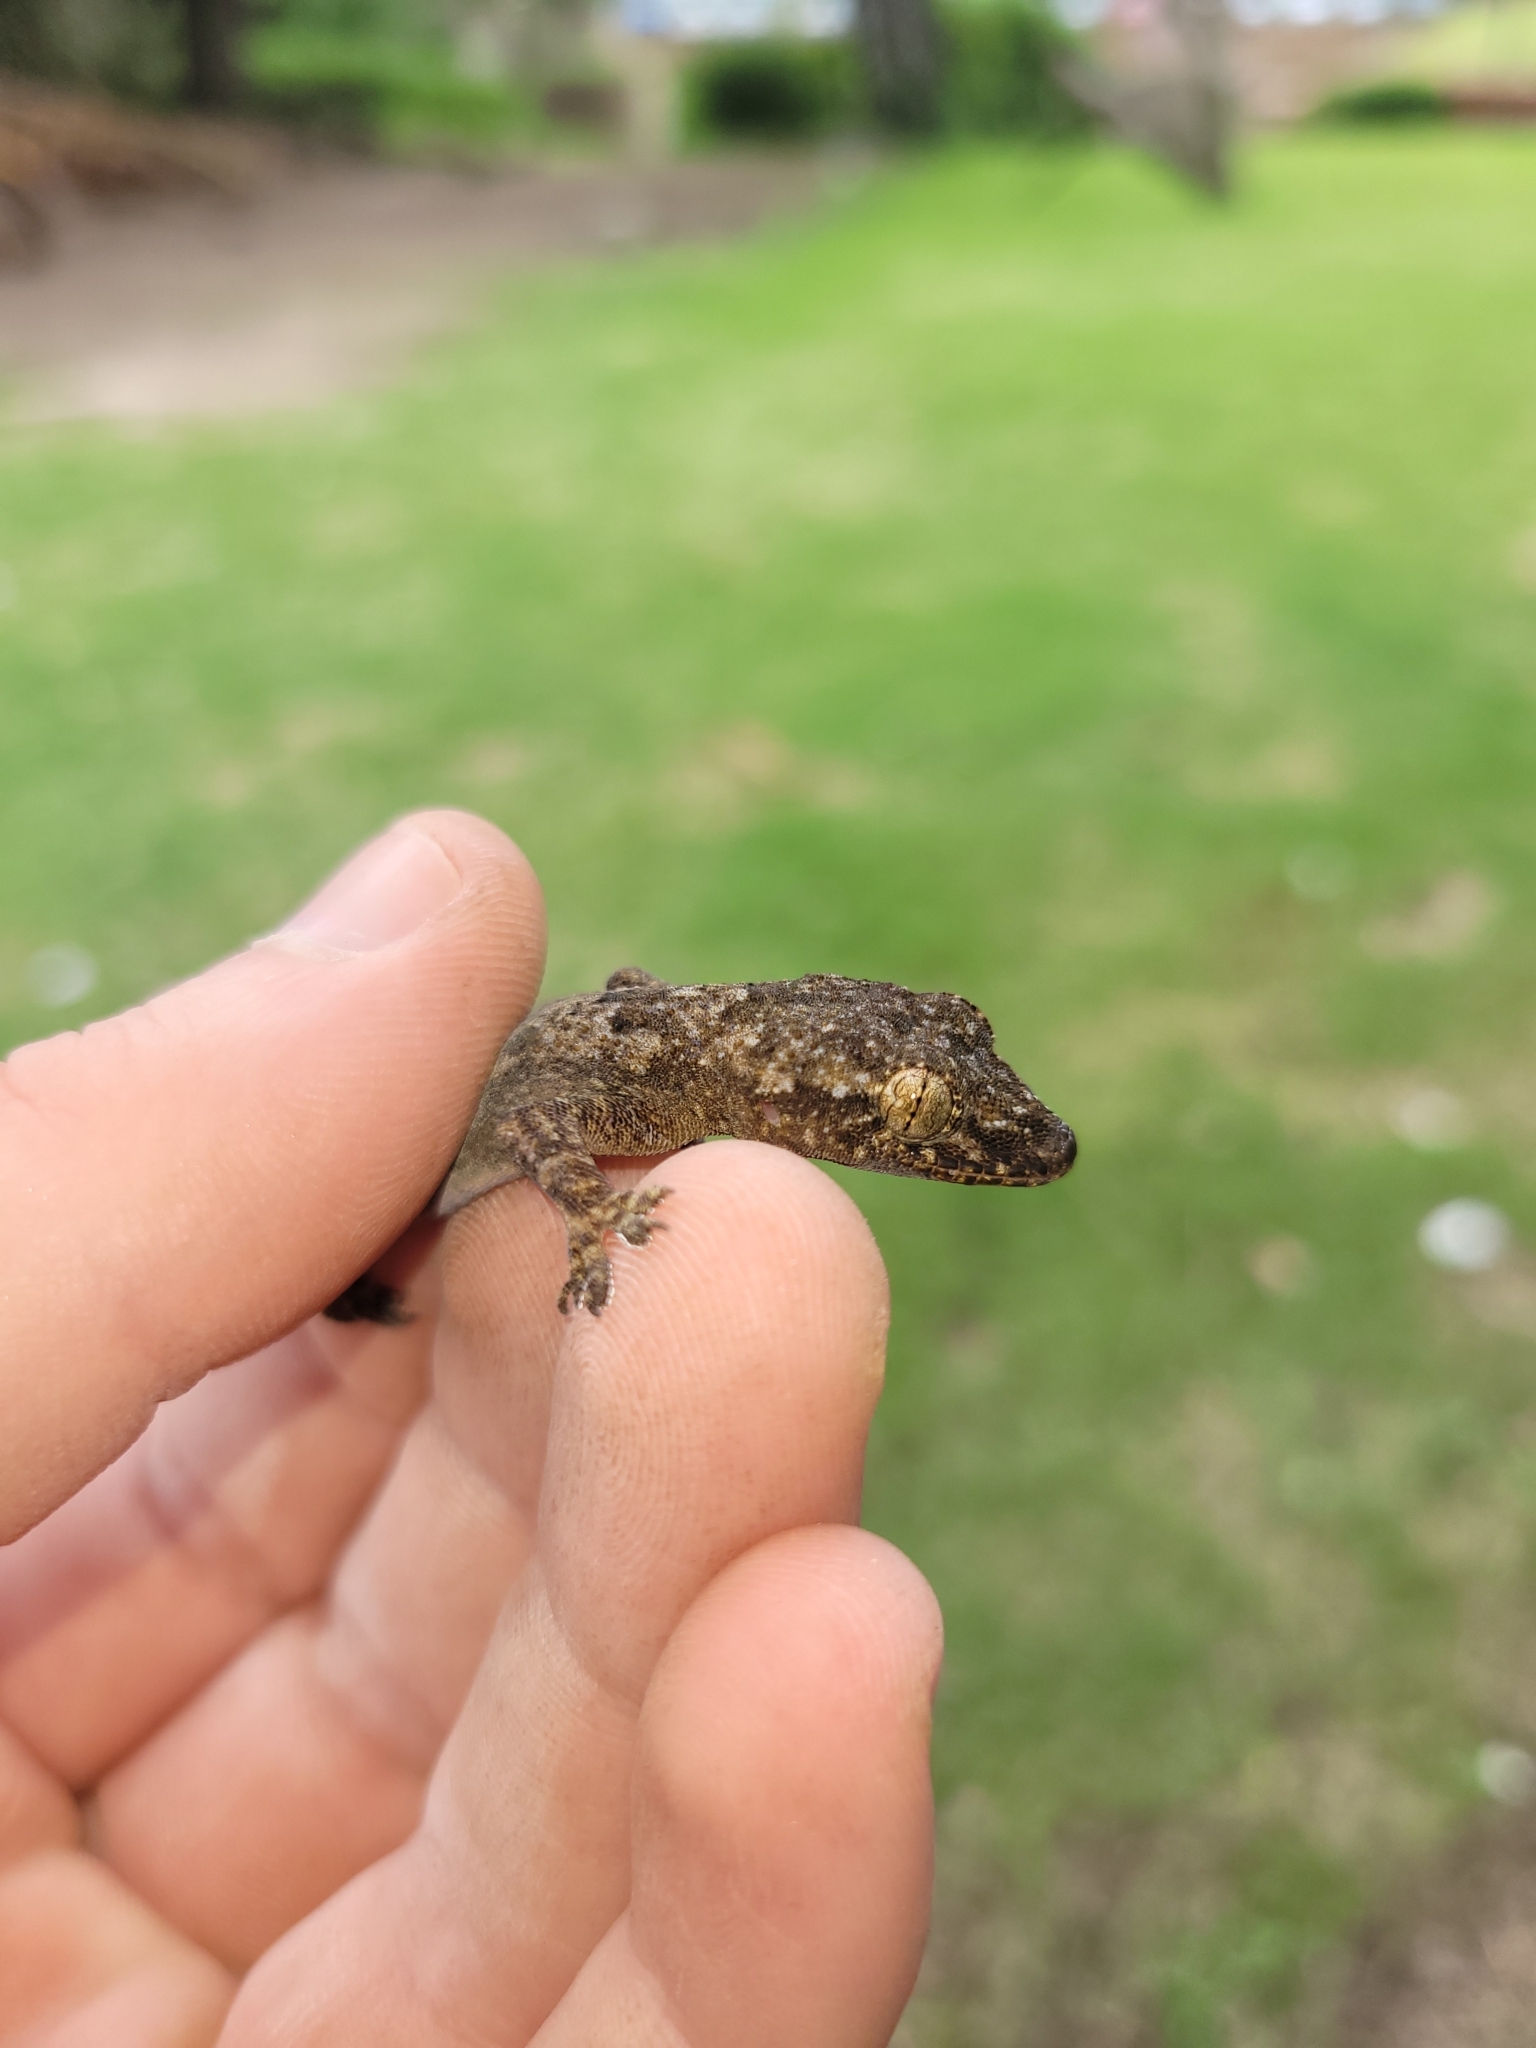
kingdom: Animalia
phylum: Chordata
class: Squamata
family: Gekkonidae
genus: Hemidactylus
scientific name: Hemidactylus mabouia
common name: House gecko
